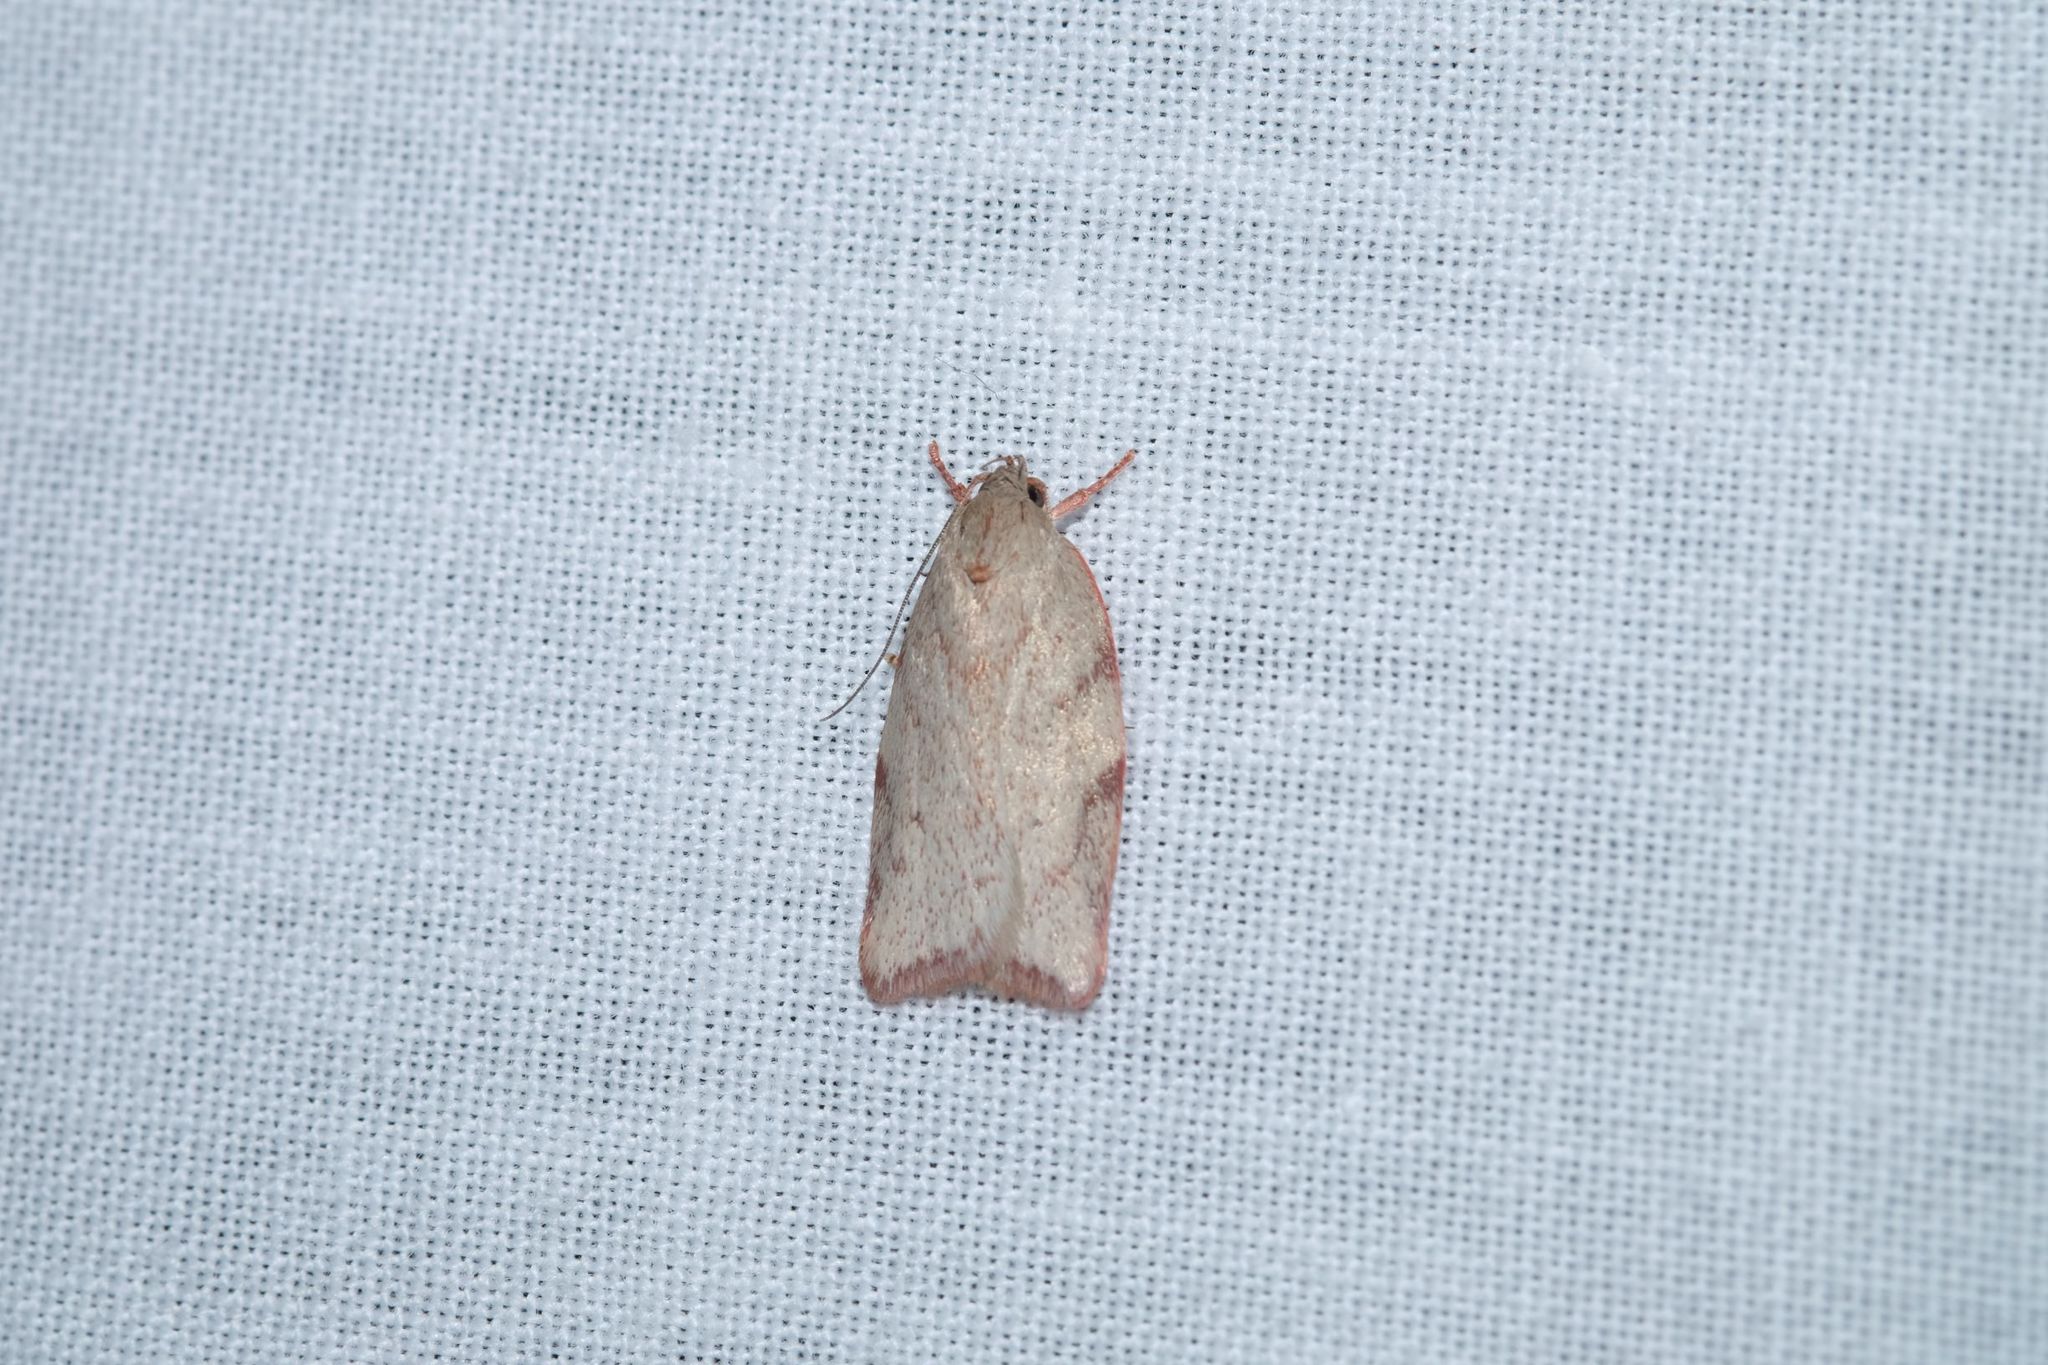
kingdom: Animalia
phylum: Arthropoda
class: Insecta
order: Lepidoptera
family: Oecophoridae
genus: Euchaetis
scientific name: Euchaetis inceptella
